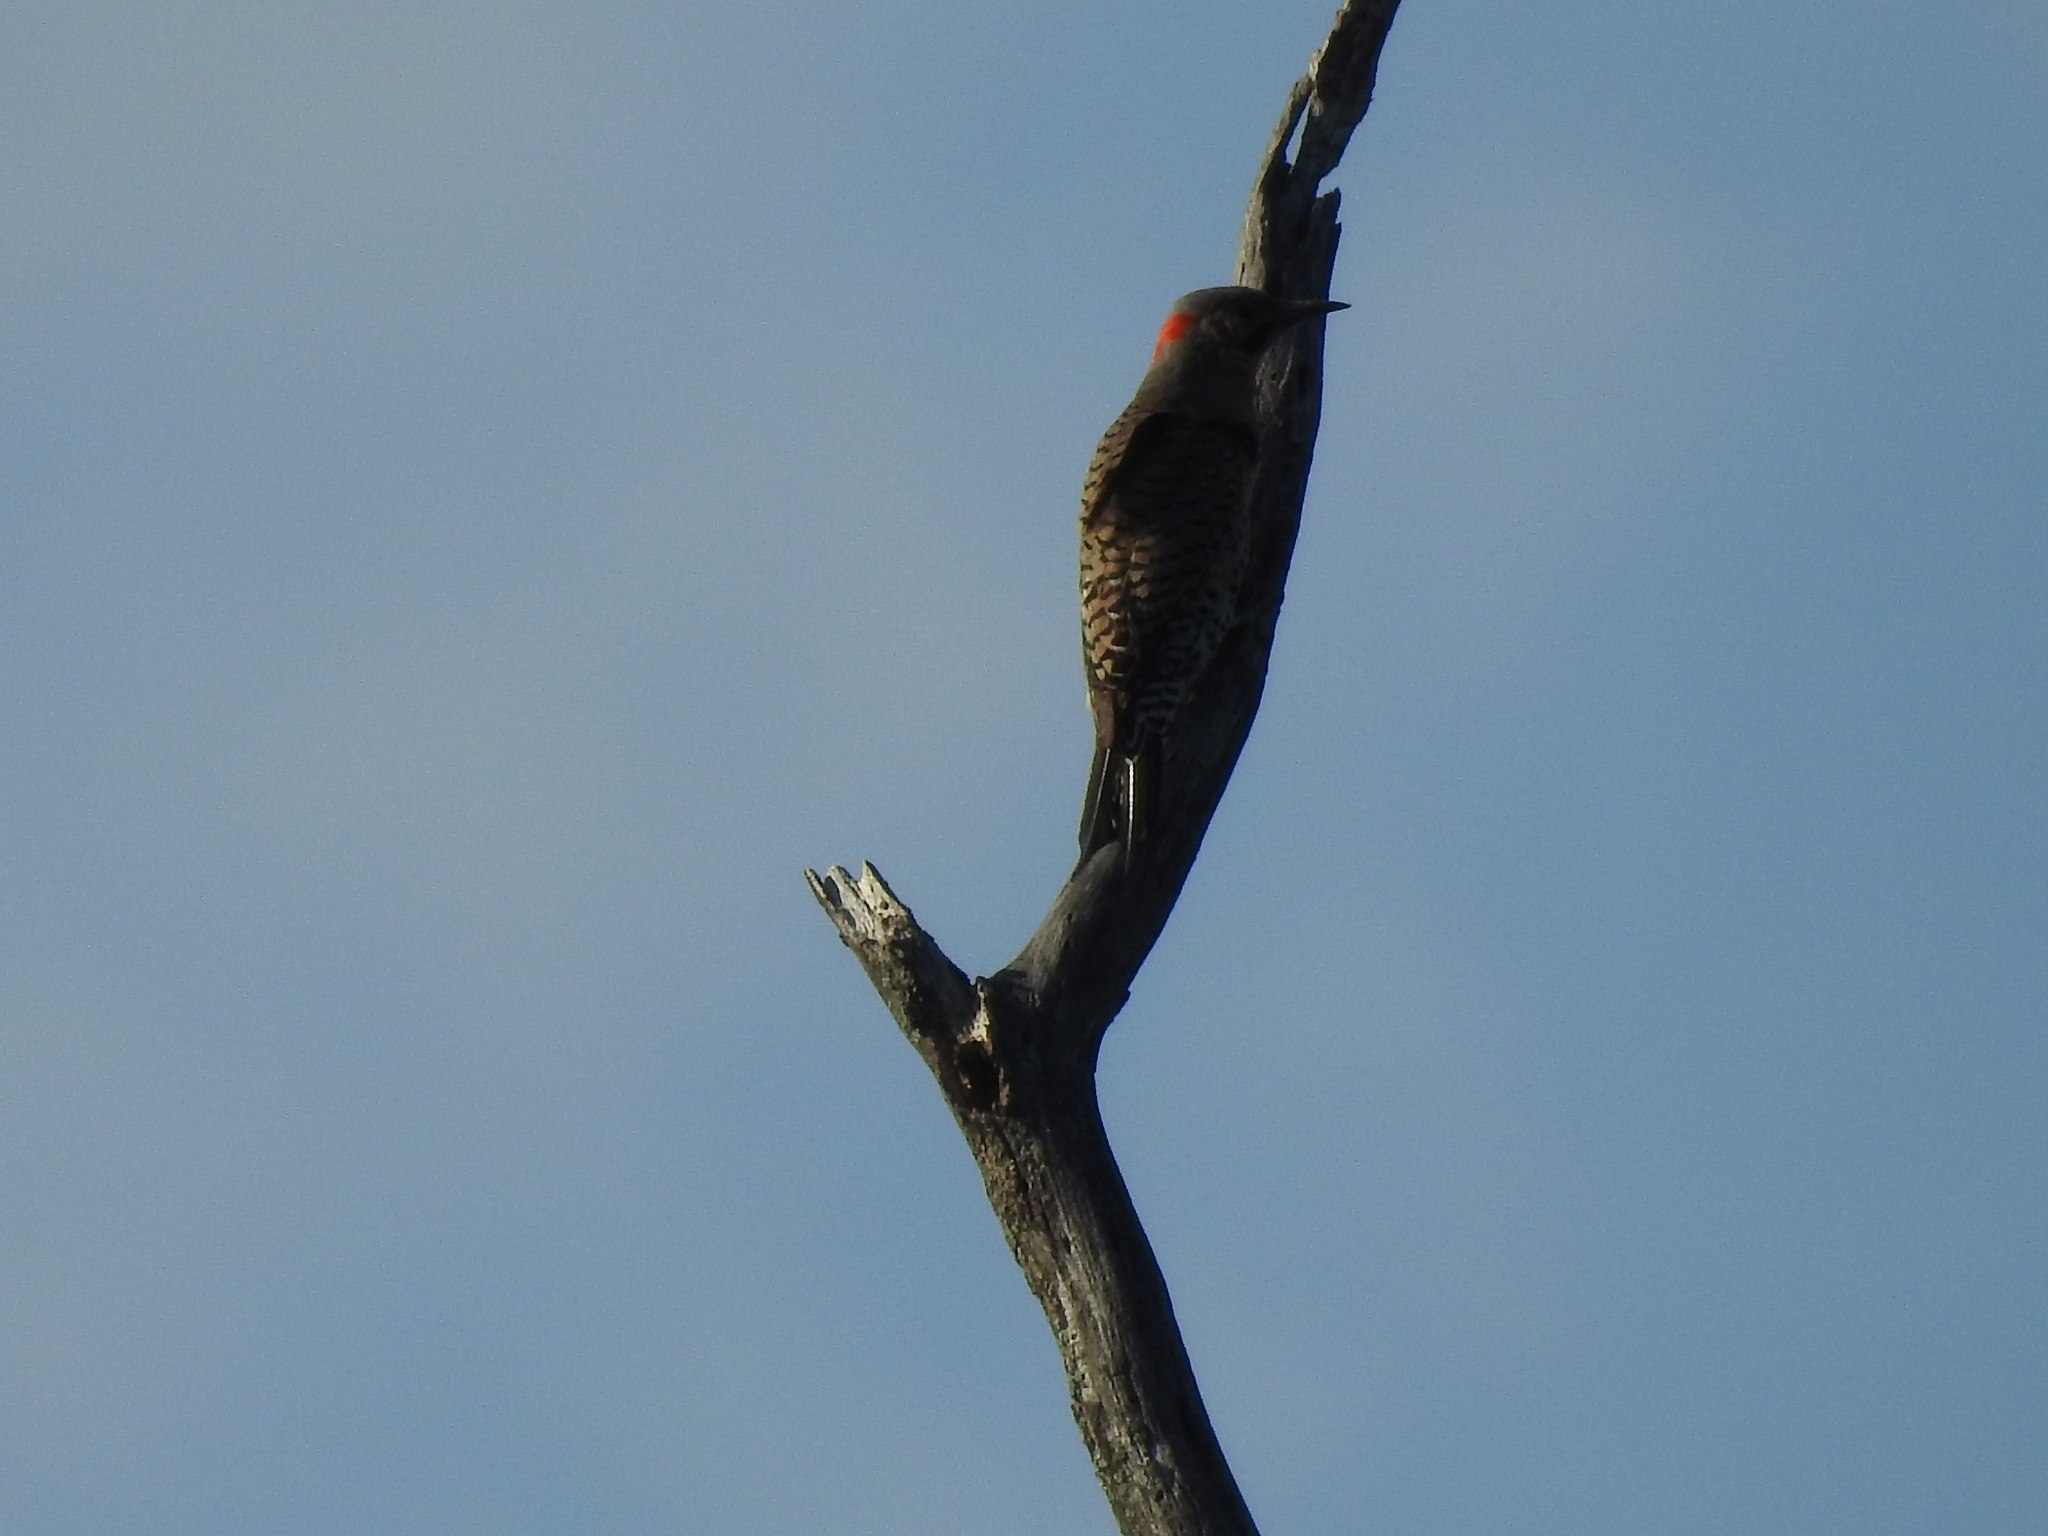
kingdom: Animalia
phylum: Chordata
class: Aves
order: Piciformes
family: Picidae
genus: Colaptes
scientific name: Colaptes auratus
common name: Northern flicker
